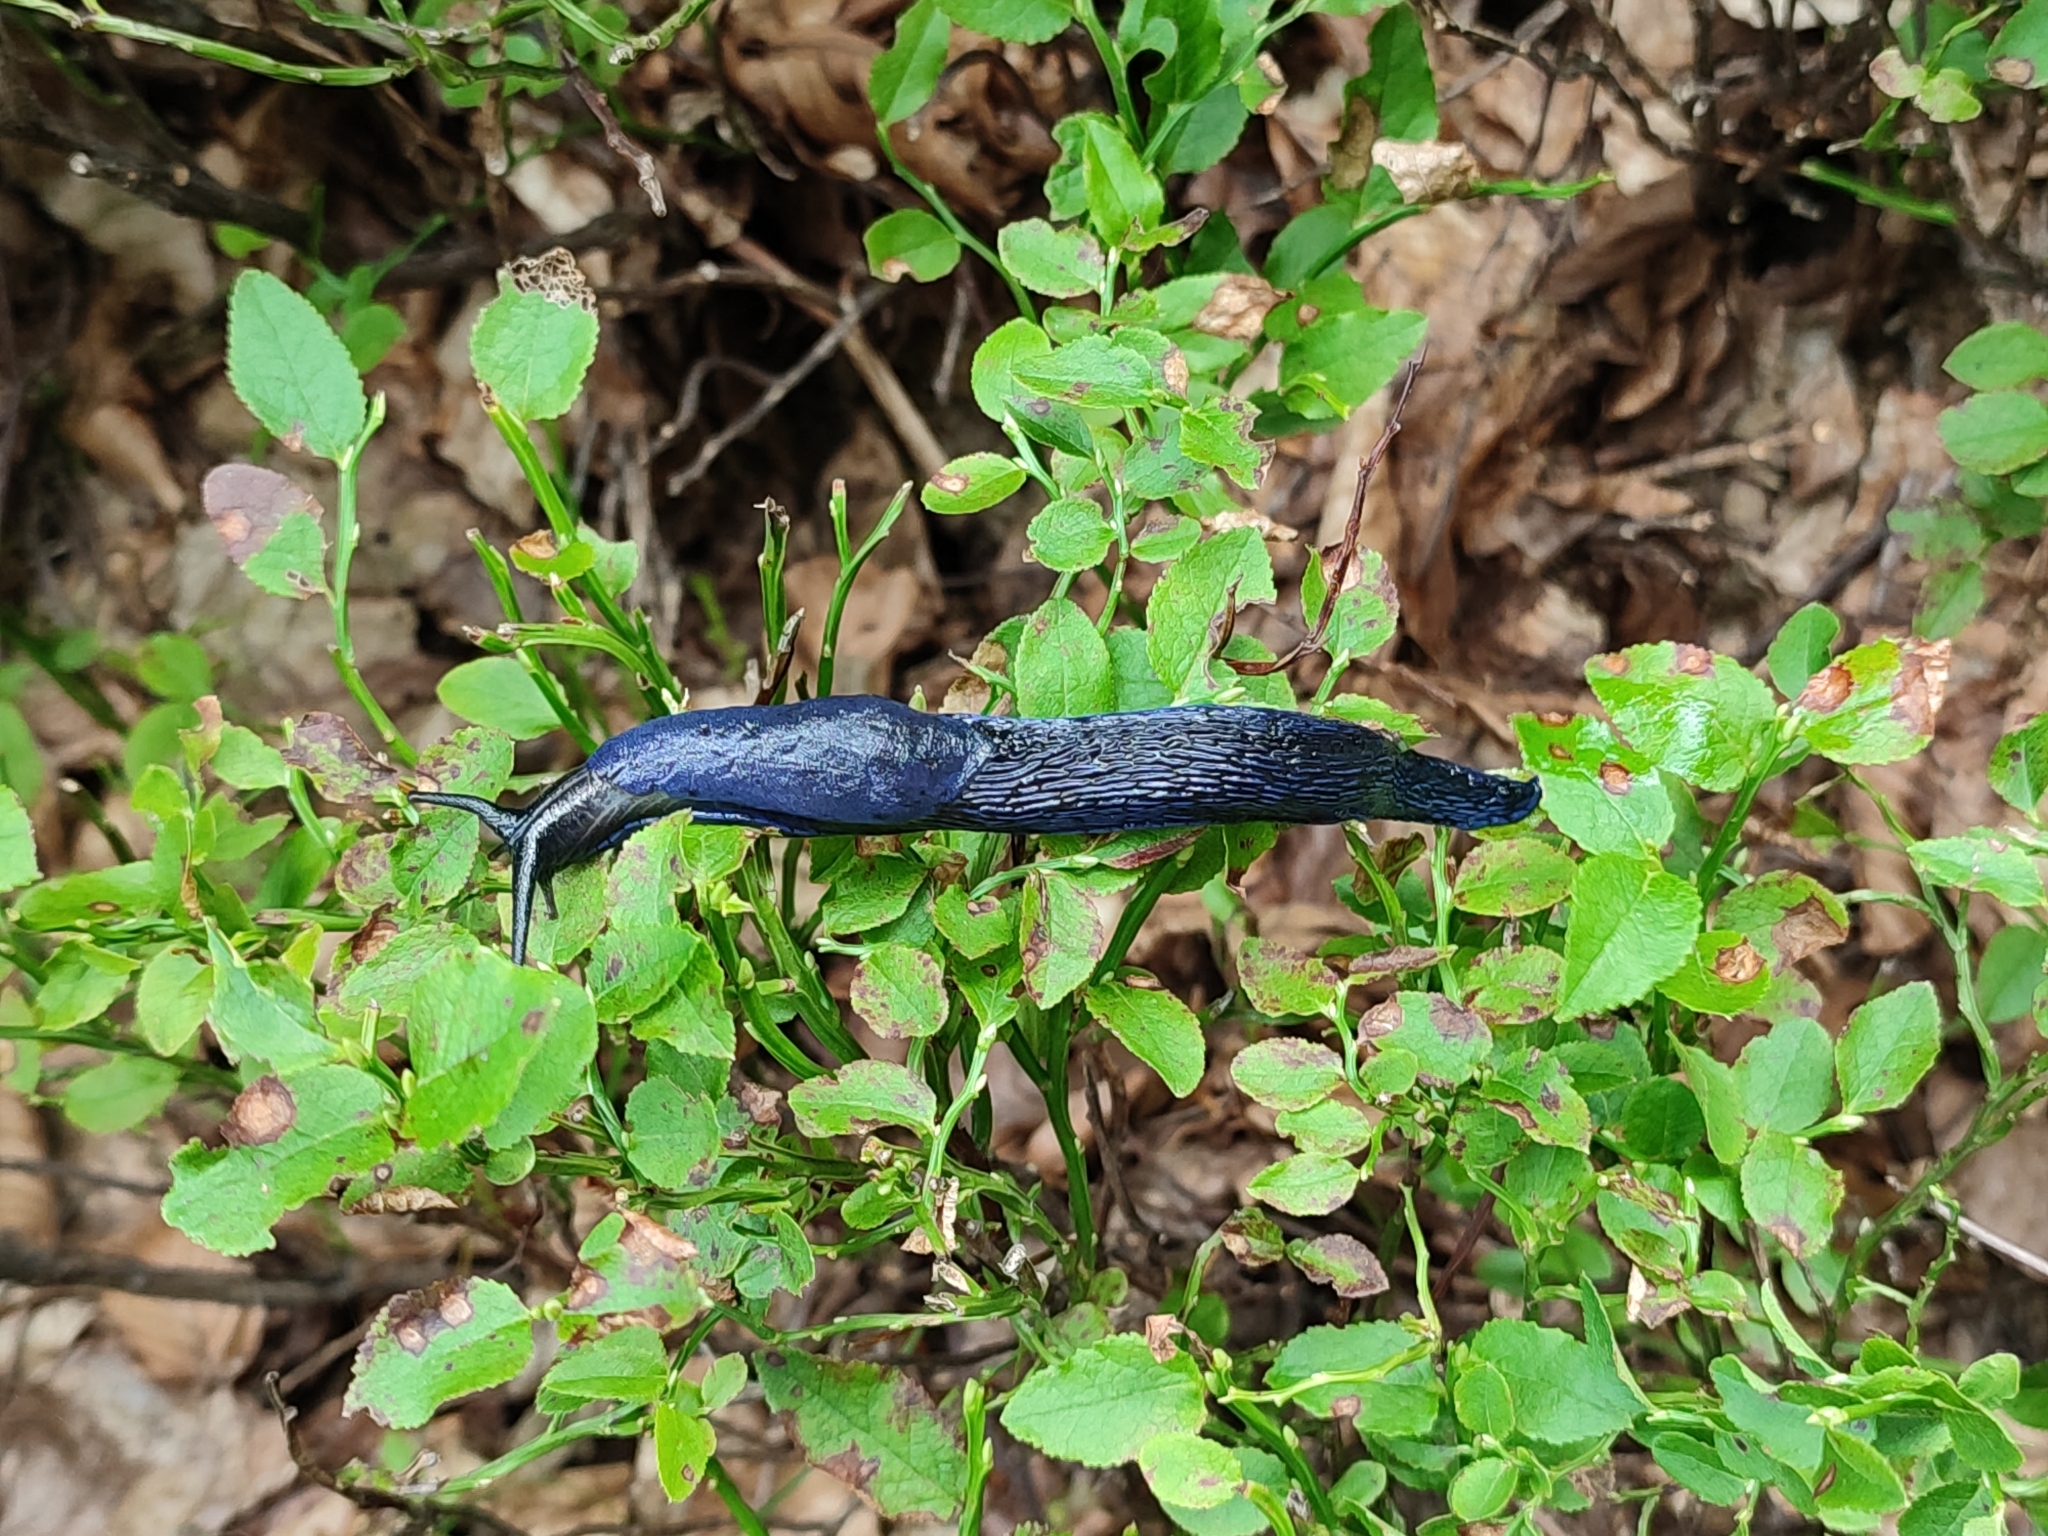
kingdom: Animalia
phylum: Mollusca
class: Gastropoda
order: Stylommatophora
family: Limacidae
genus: Bielzia
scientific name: Bielzia coerulans
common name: Carpathian blue slug
